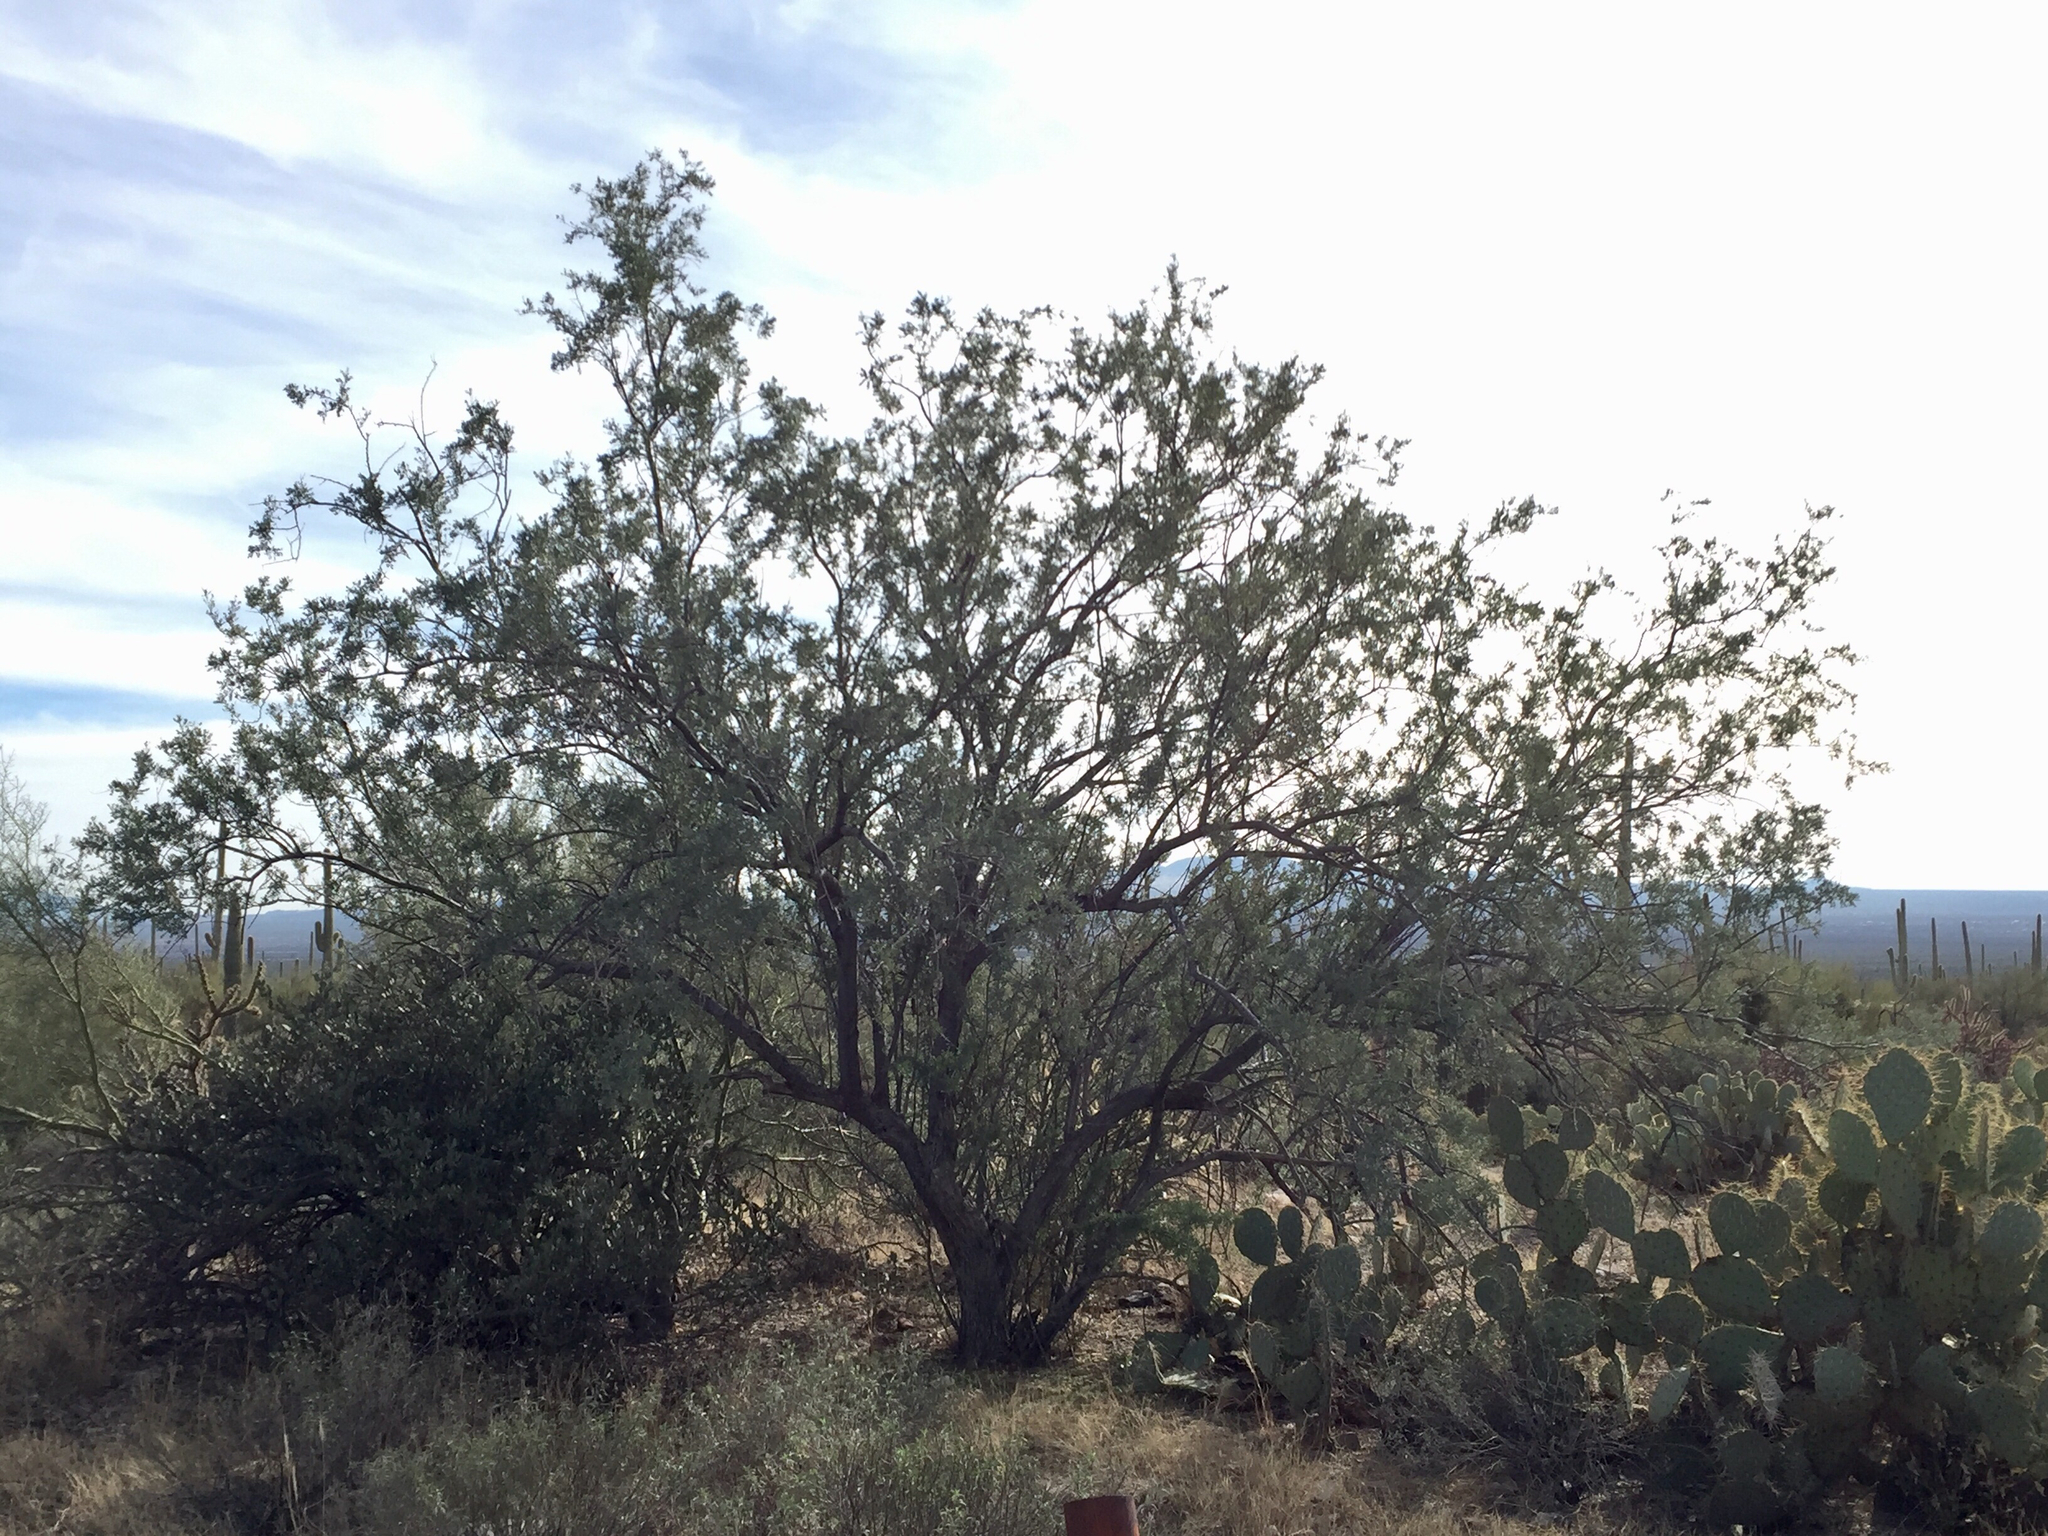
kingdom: Plantae
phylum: Tracheophyta
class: Magnoliopsida
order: Fabales
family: Fabaceae
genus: Olneya
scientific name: Olneya tesota
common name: Desert ironwood
